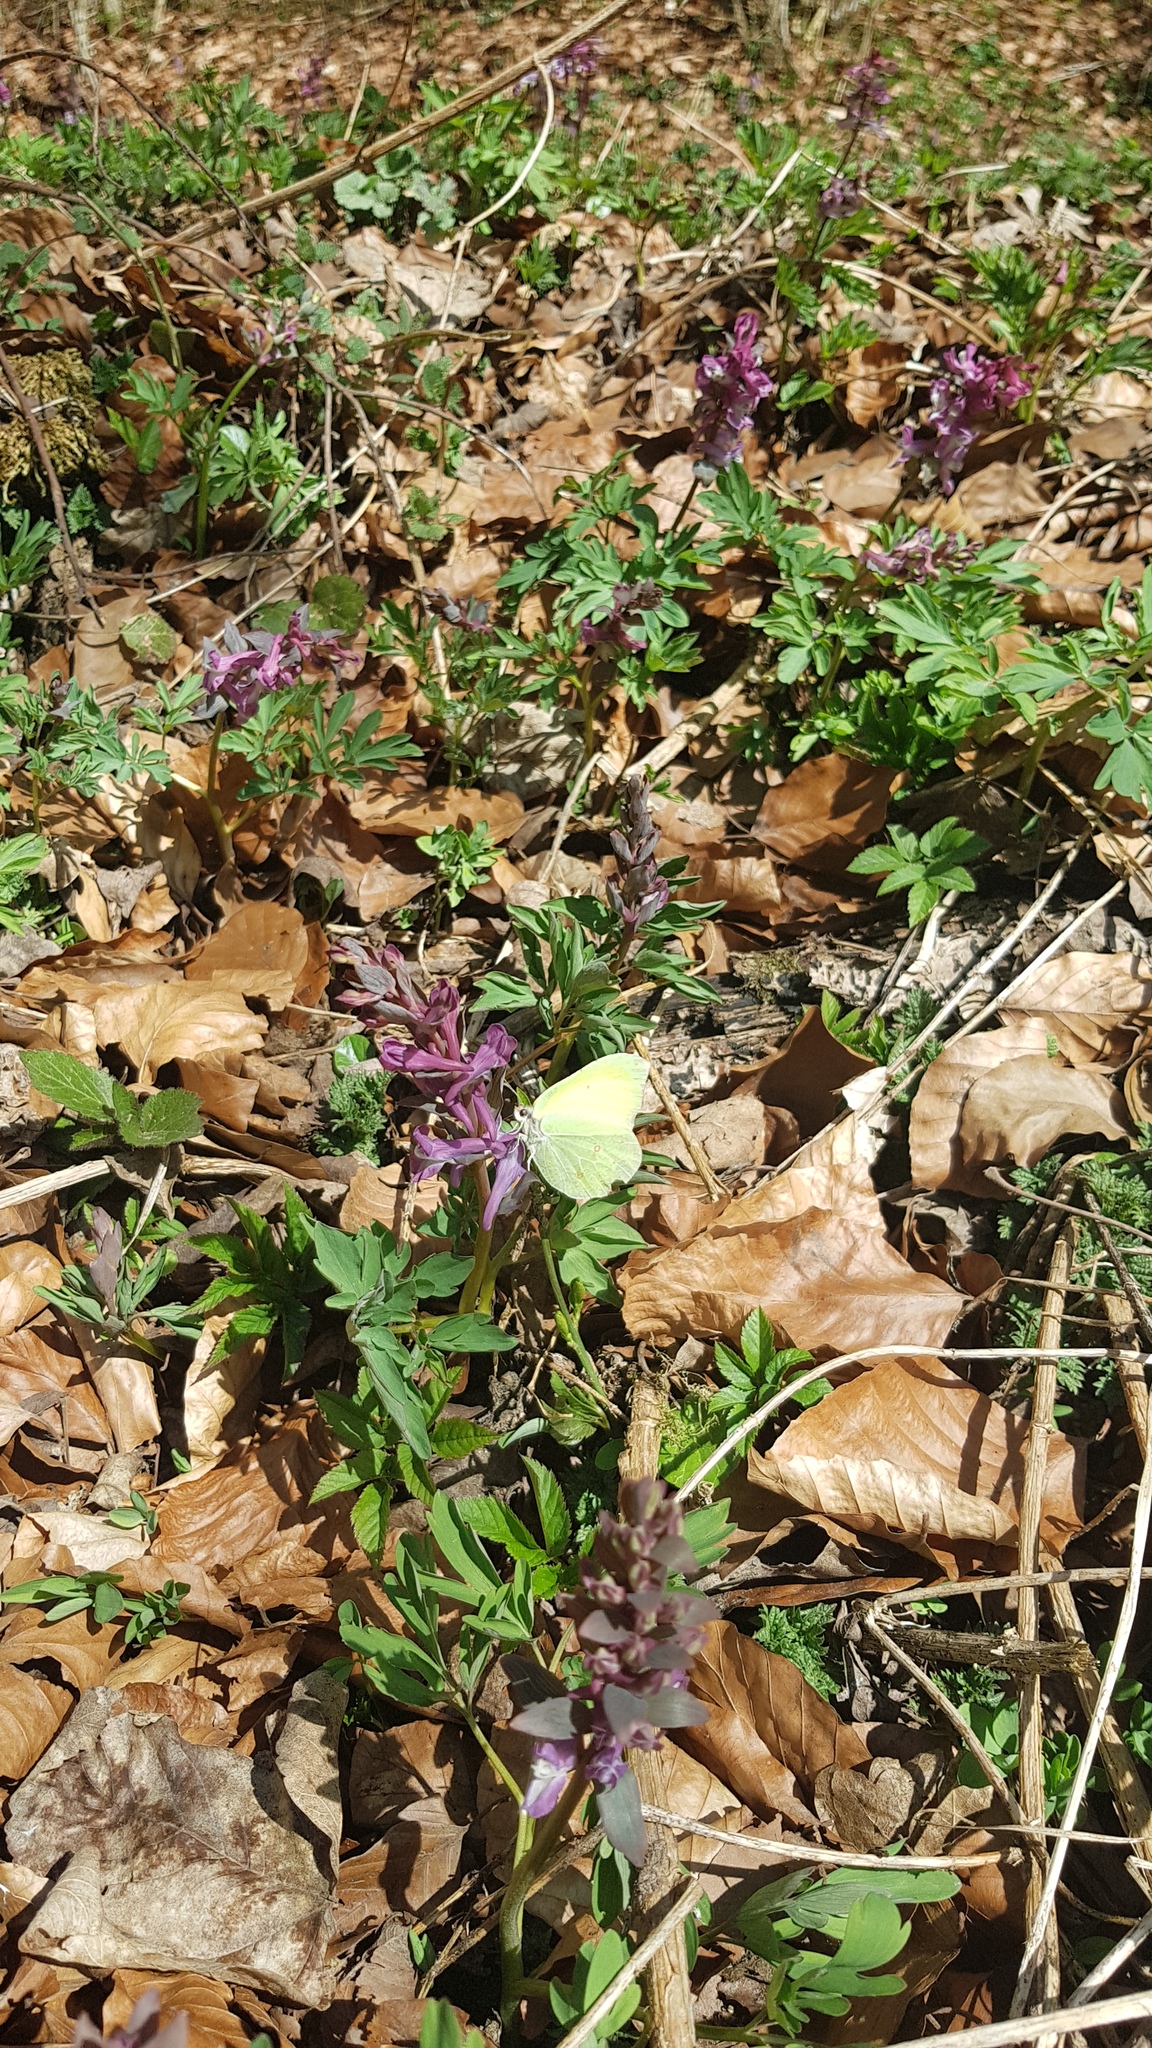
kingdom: Animalia
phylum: Arthropoda
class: Insecta
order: Lepidoptera
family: Pieridae
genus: Gonepteryx
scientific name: Gonepteryx rhamni
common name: Brimstone
